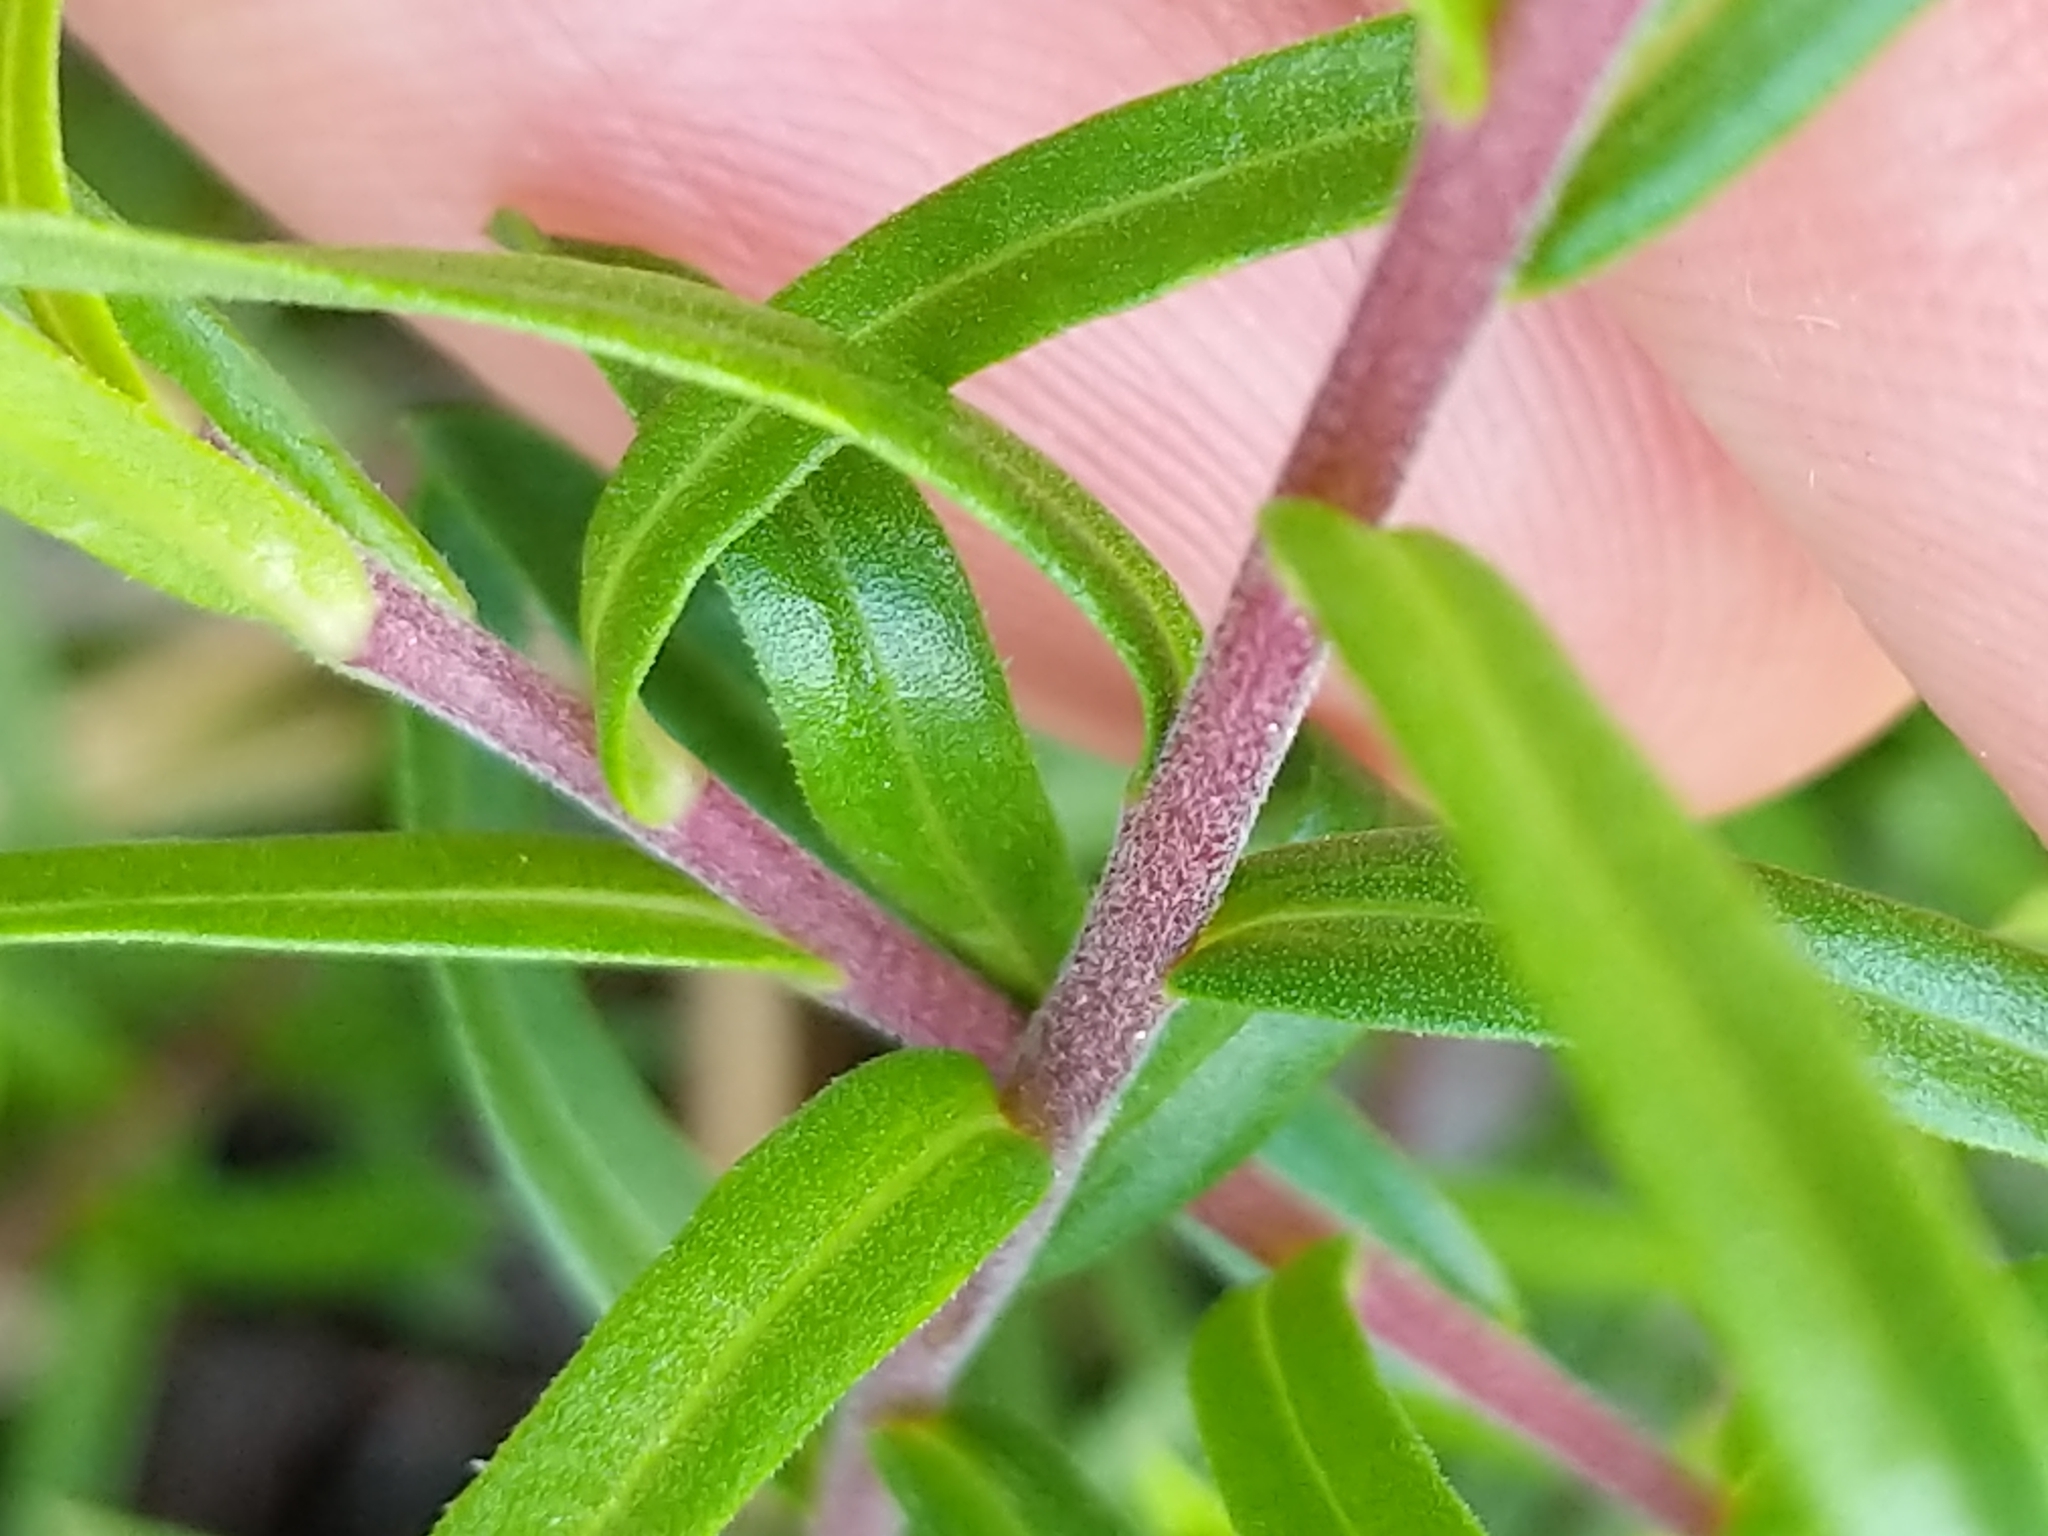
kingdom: Plantae
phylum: Tracheophyta
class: Magnoliopsida
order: Asterales
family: Asteraceae
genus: Ionactis
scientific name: Ionactis linariifolia
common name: Flax-leaf aster
